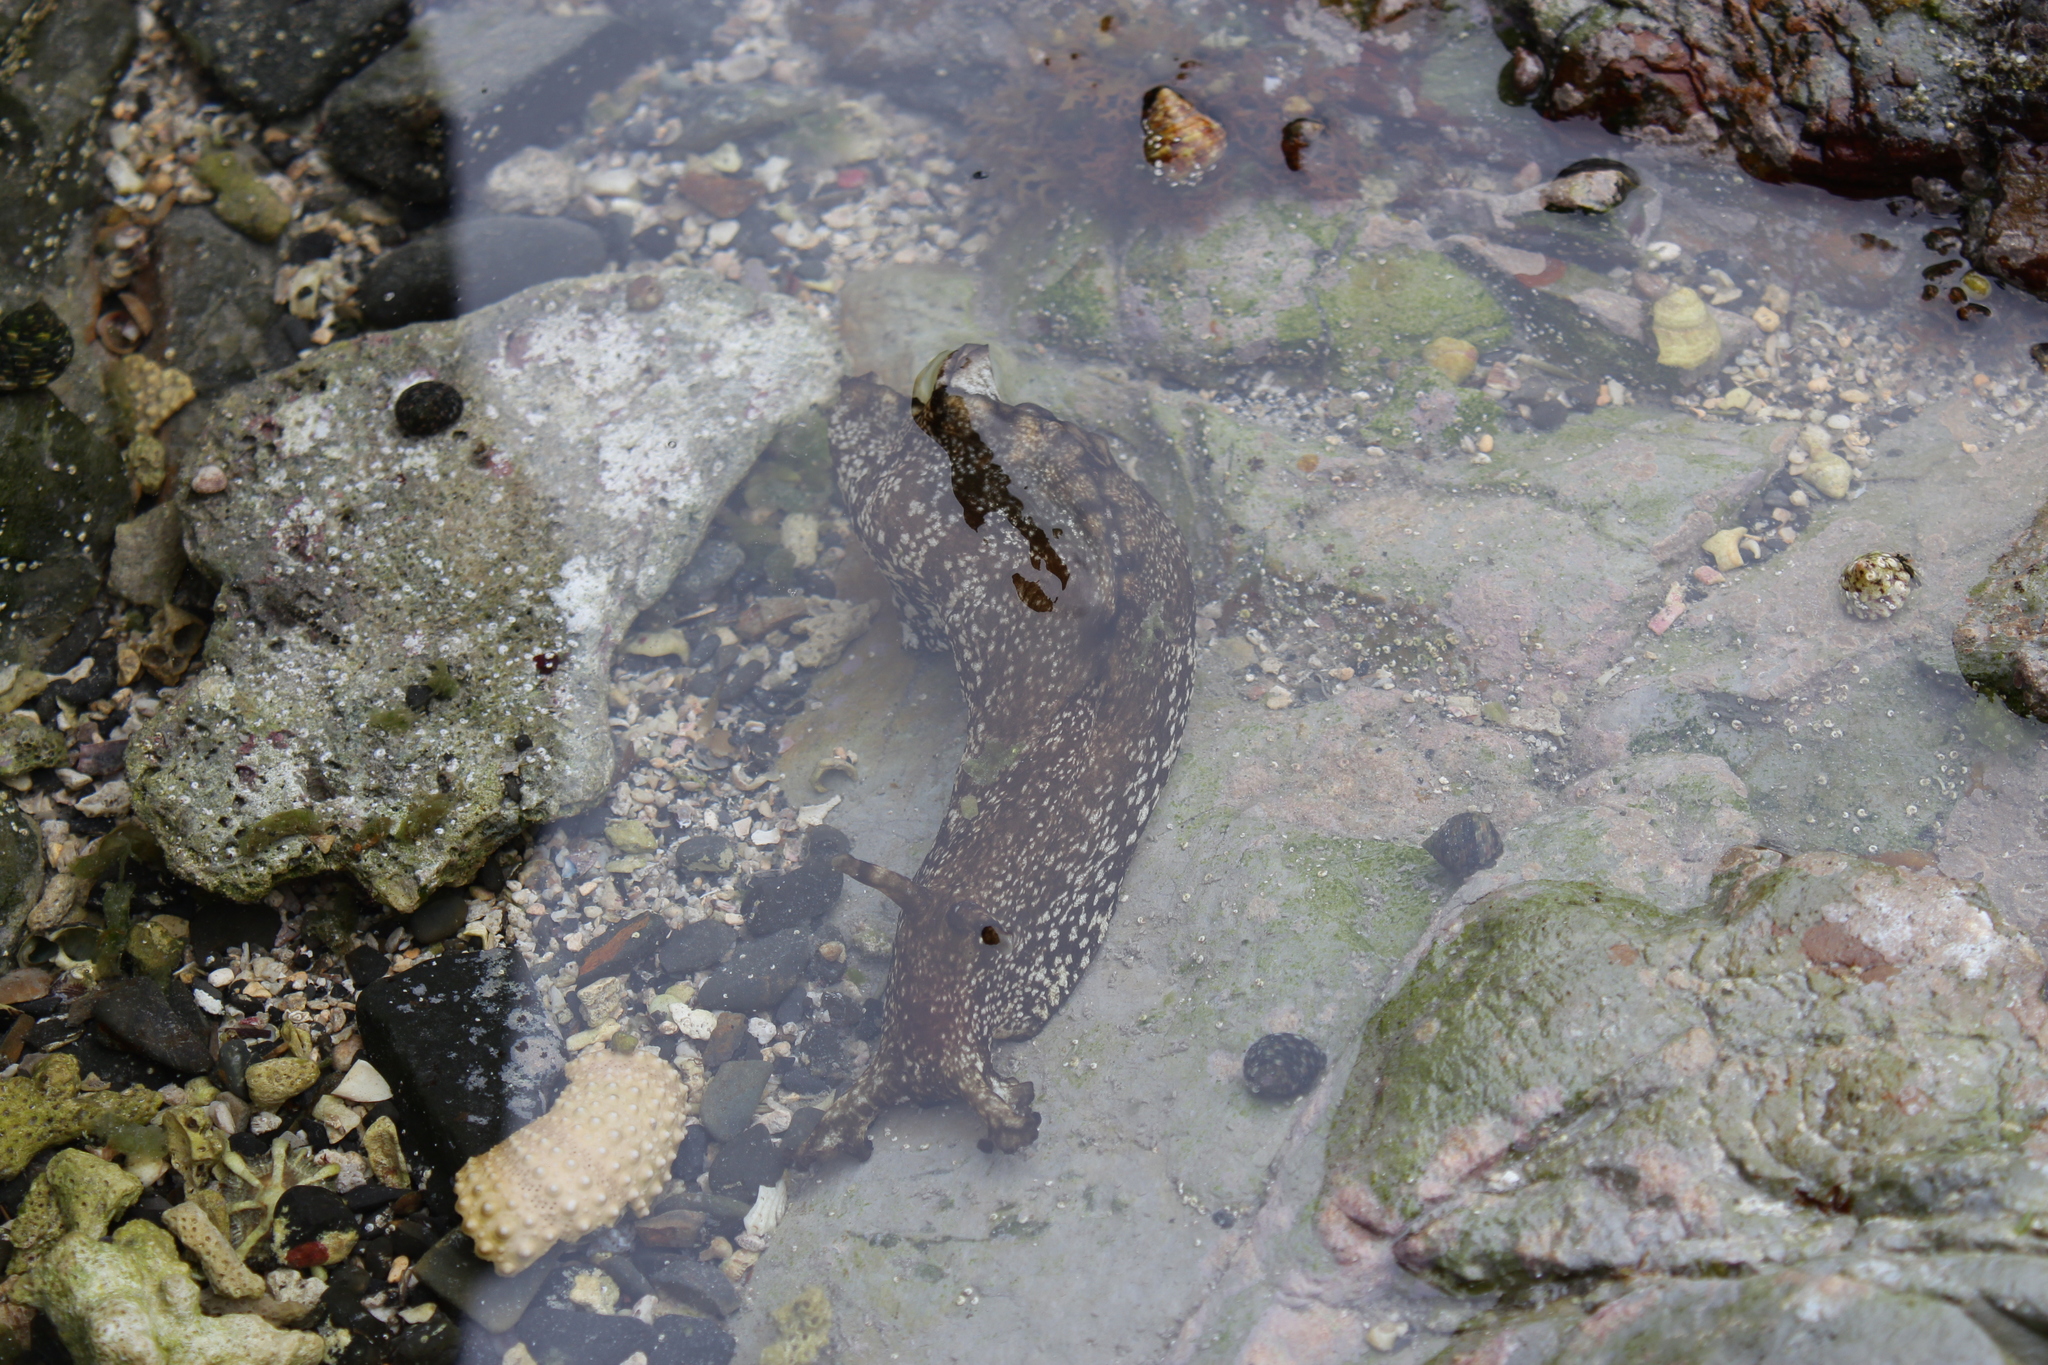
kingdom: Animalia
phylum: Mollusca
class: Gastropoda
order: Aplysiida
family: Aplysiidae
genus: Aplysia
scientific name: Aplysia kurodai
